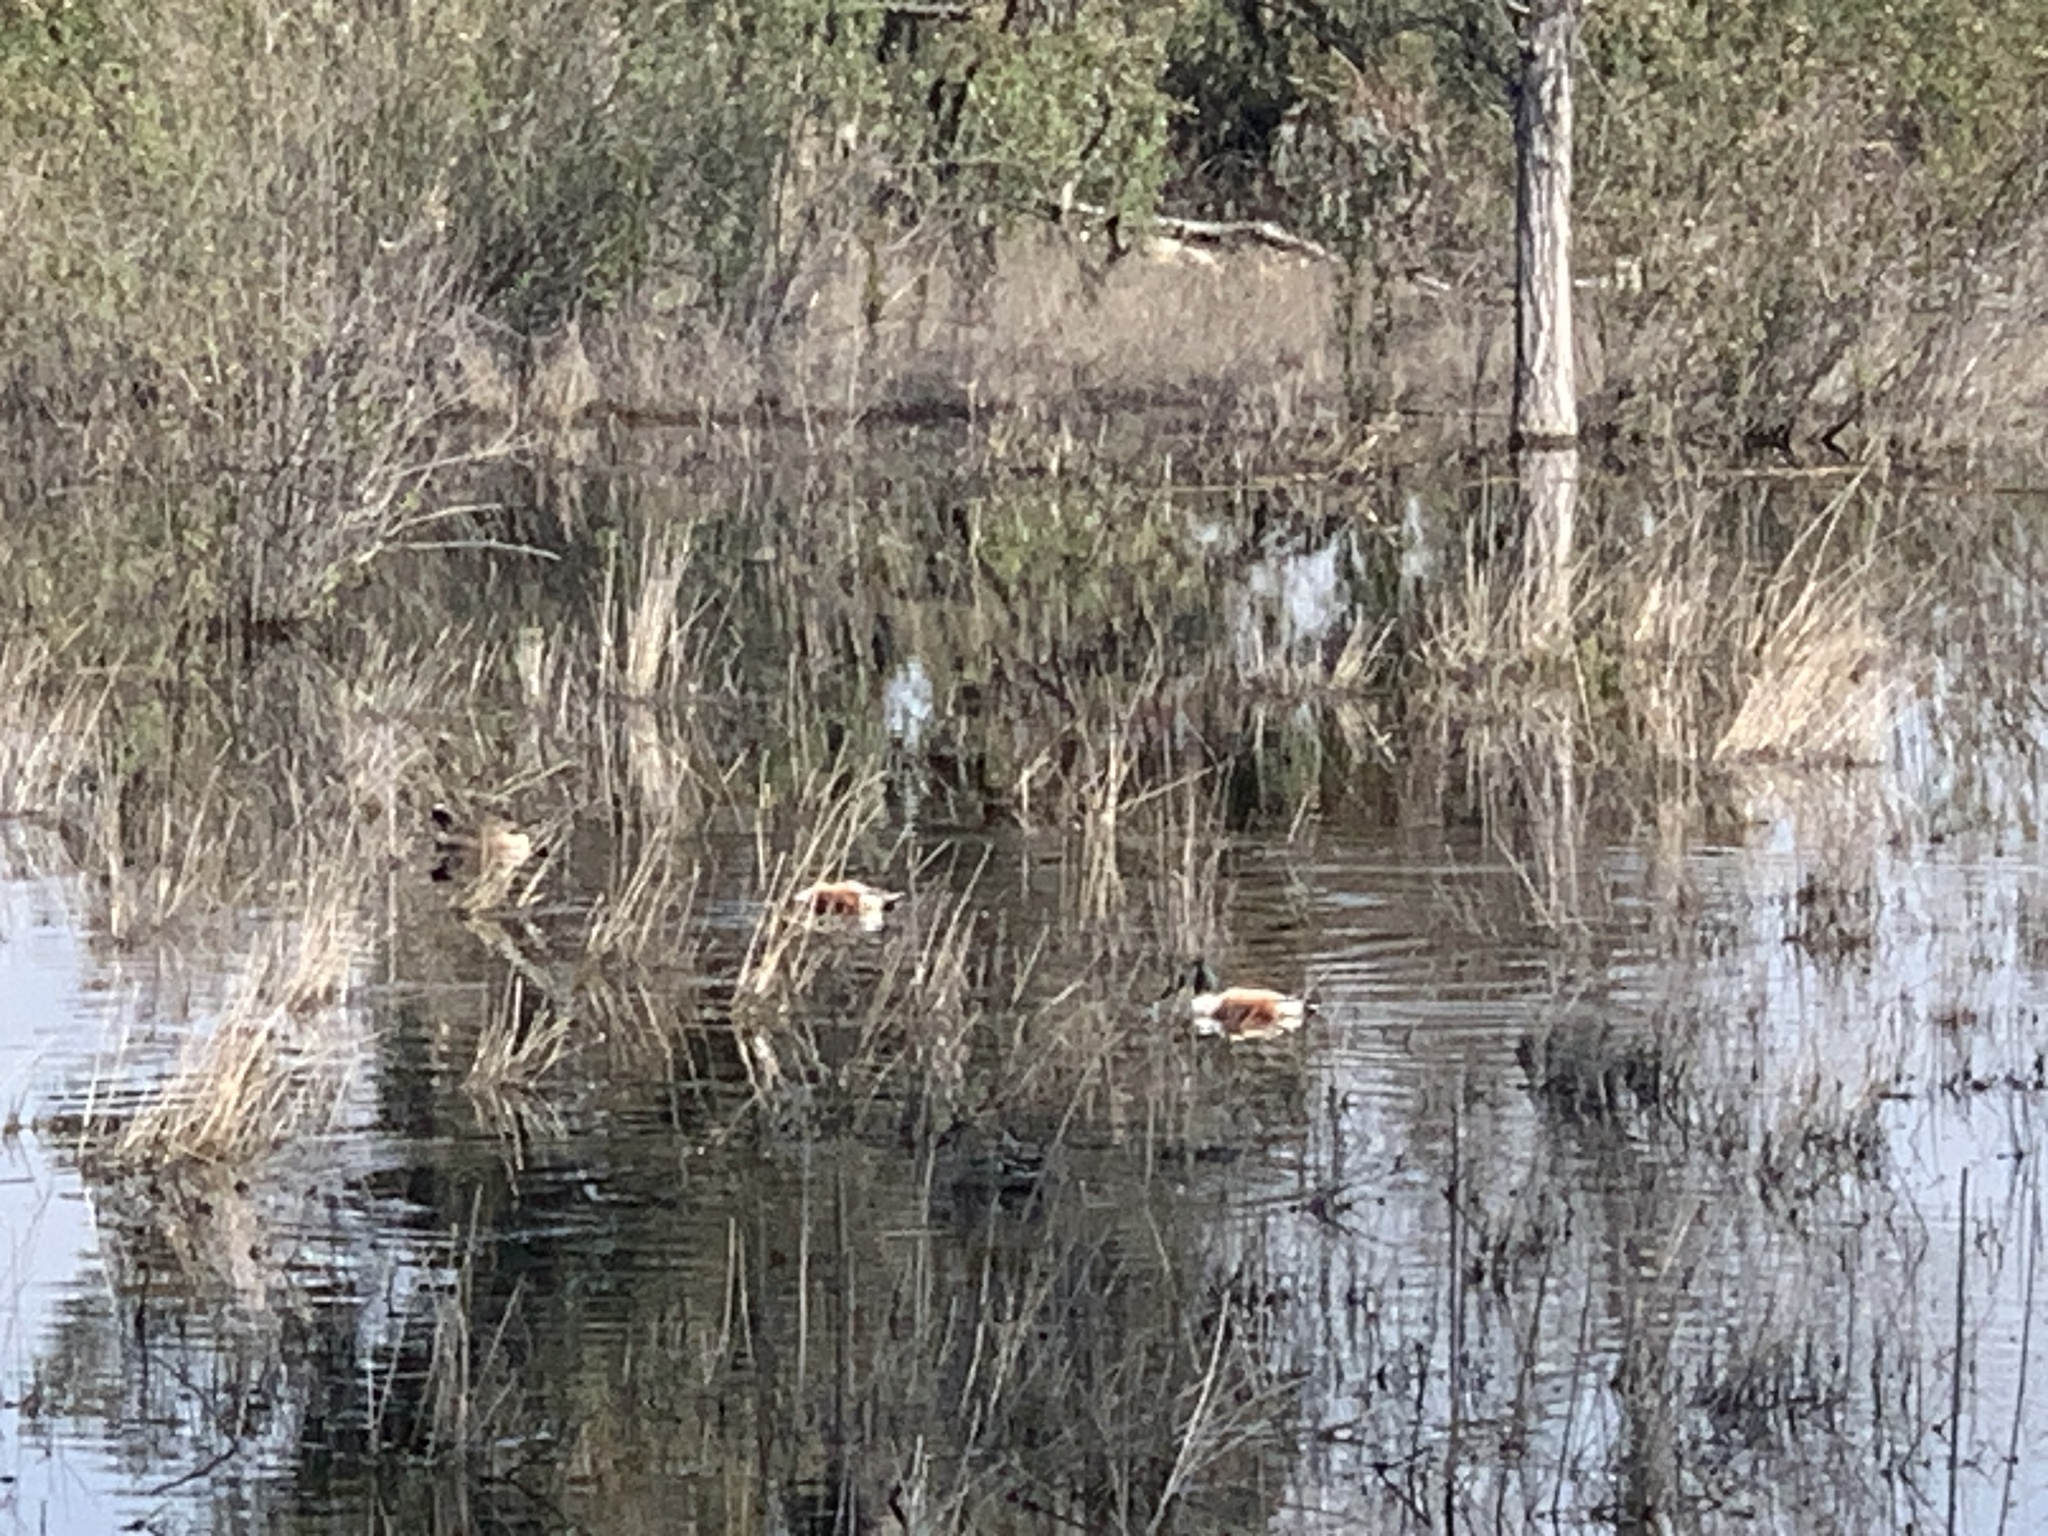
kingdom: Animalia
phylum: Chordata
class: Aves
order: Anseriformes
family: Anatidae
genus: Spatula
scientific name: Spatula clypeata
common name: Northern shoveler
